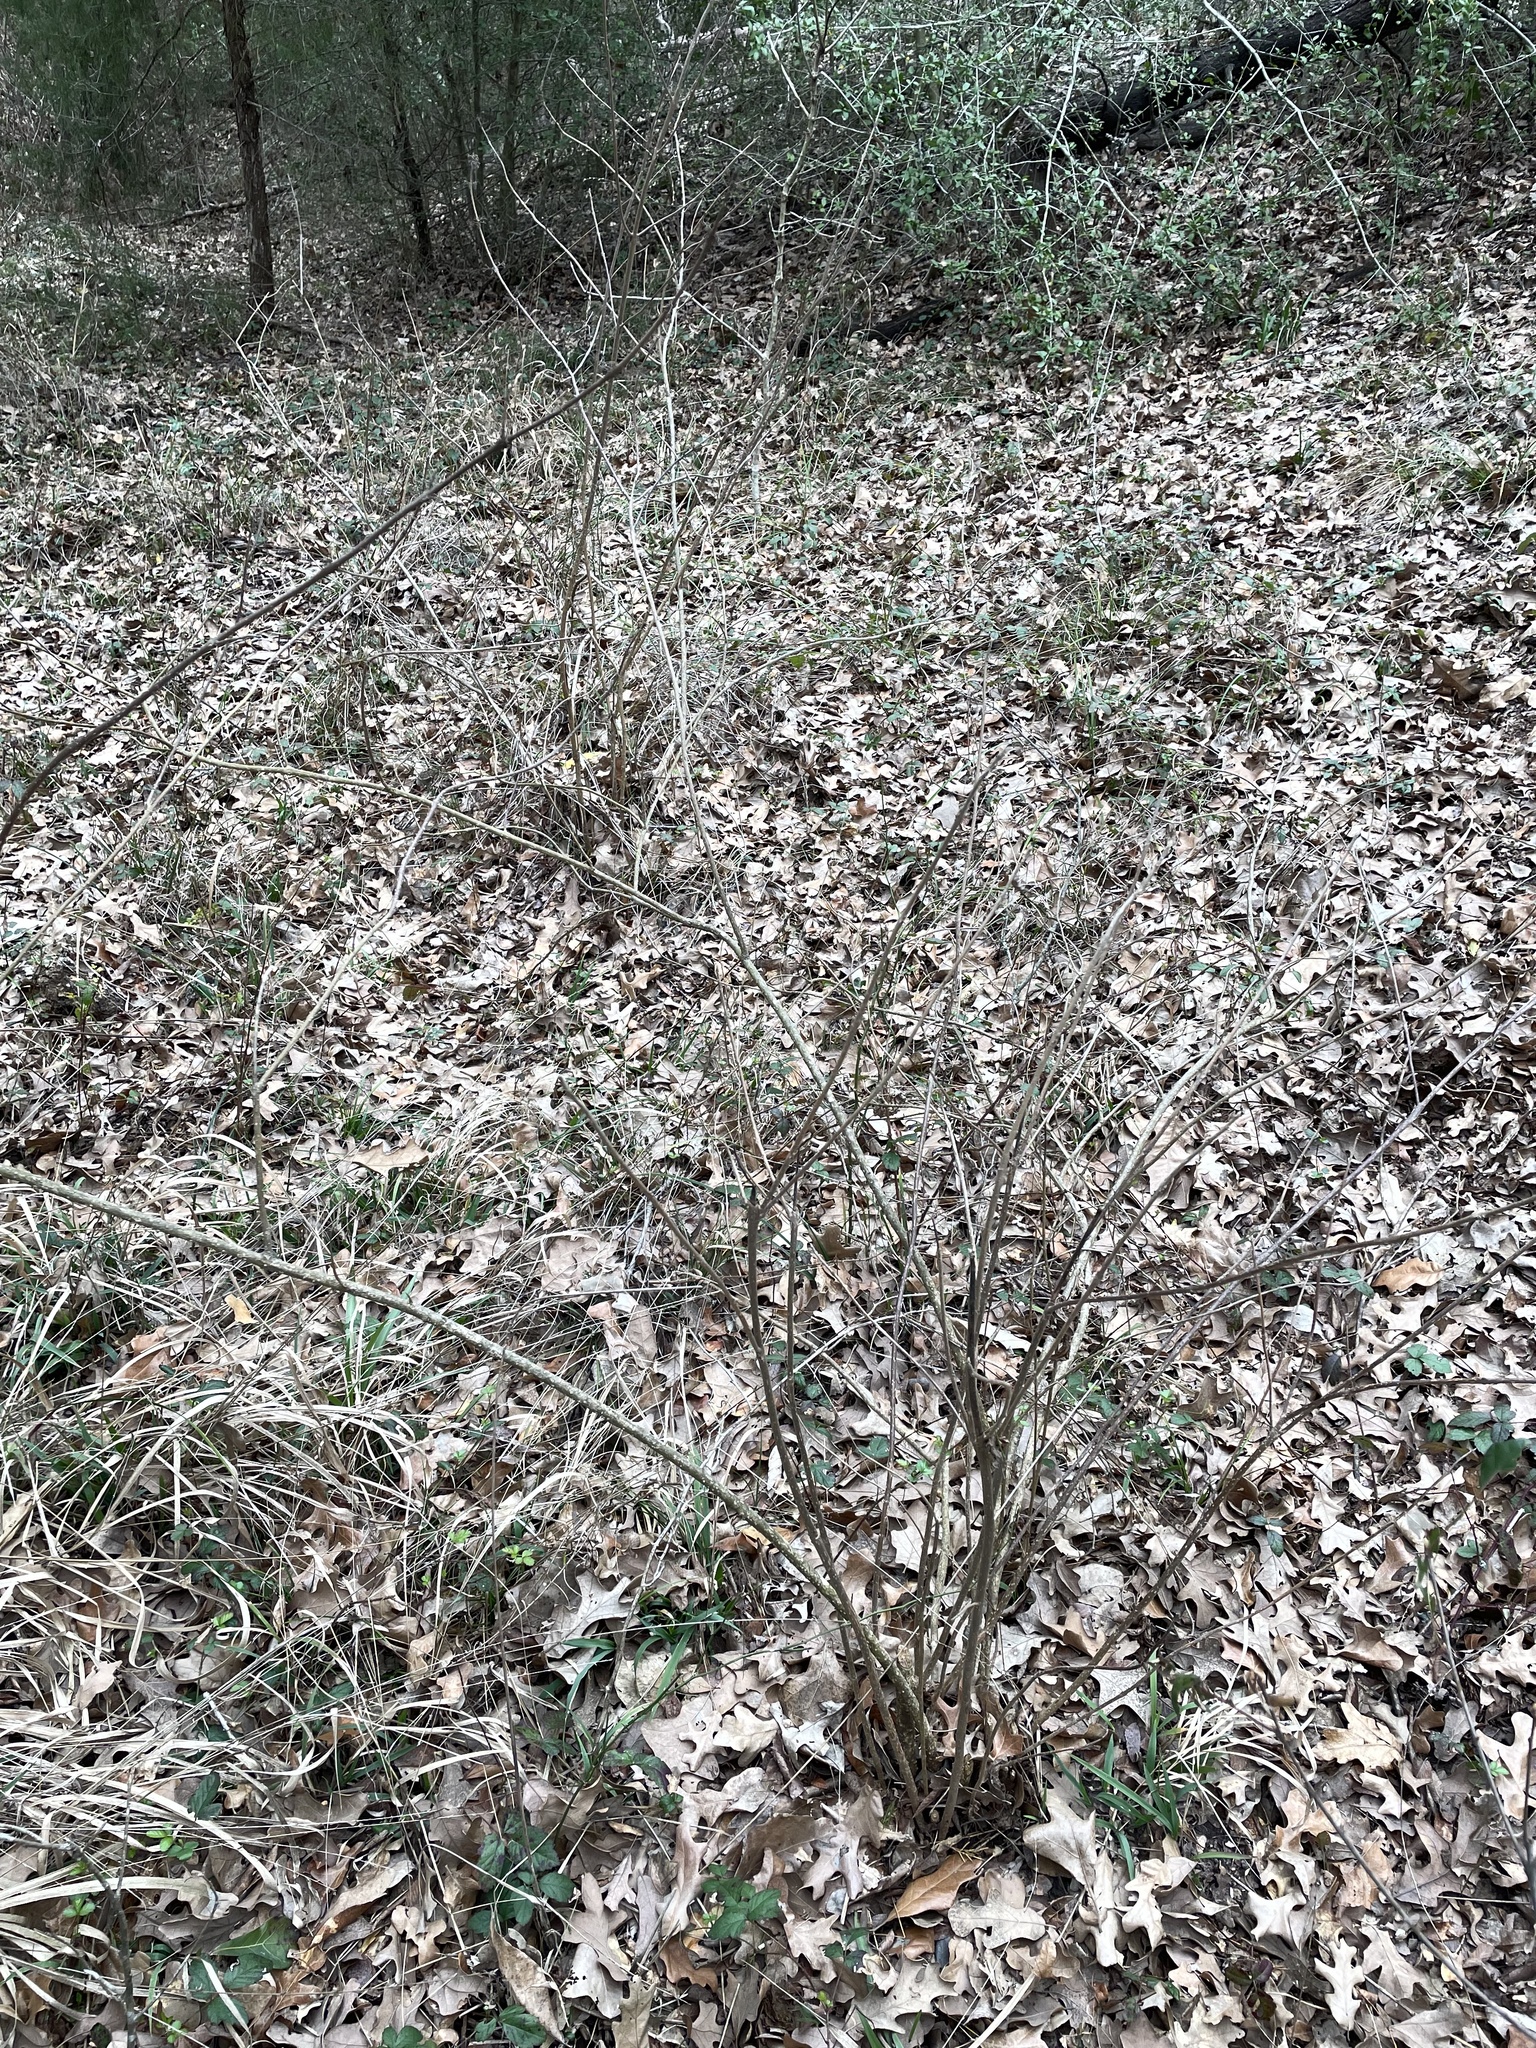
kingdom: Plantae
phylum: Tracheophyta
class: Magnoliopsida
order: Lamiales
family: Lamiaceae
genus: Callicarpa
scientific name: Callicarpa americana
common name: American beautyberry
